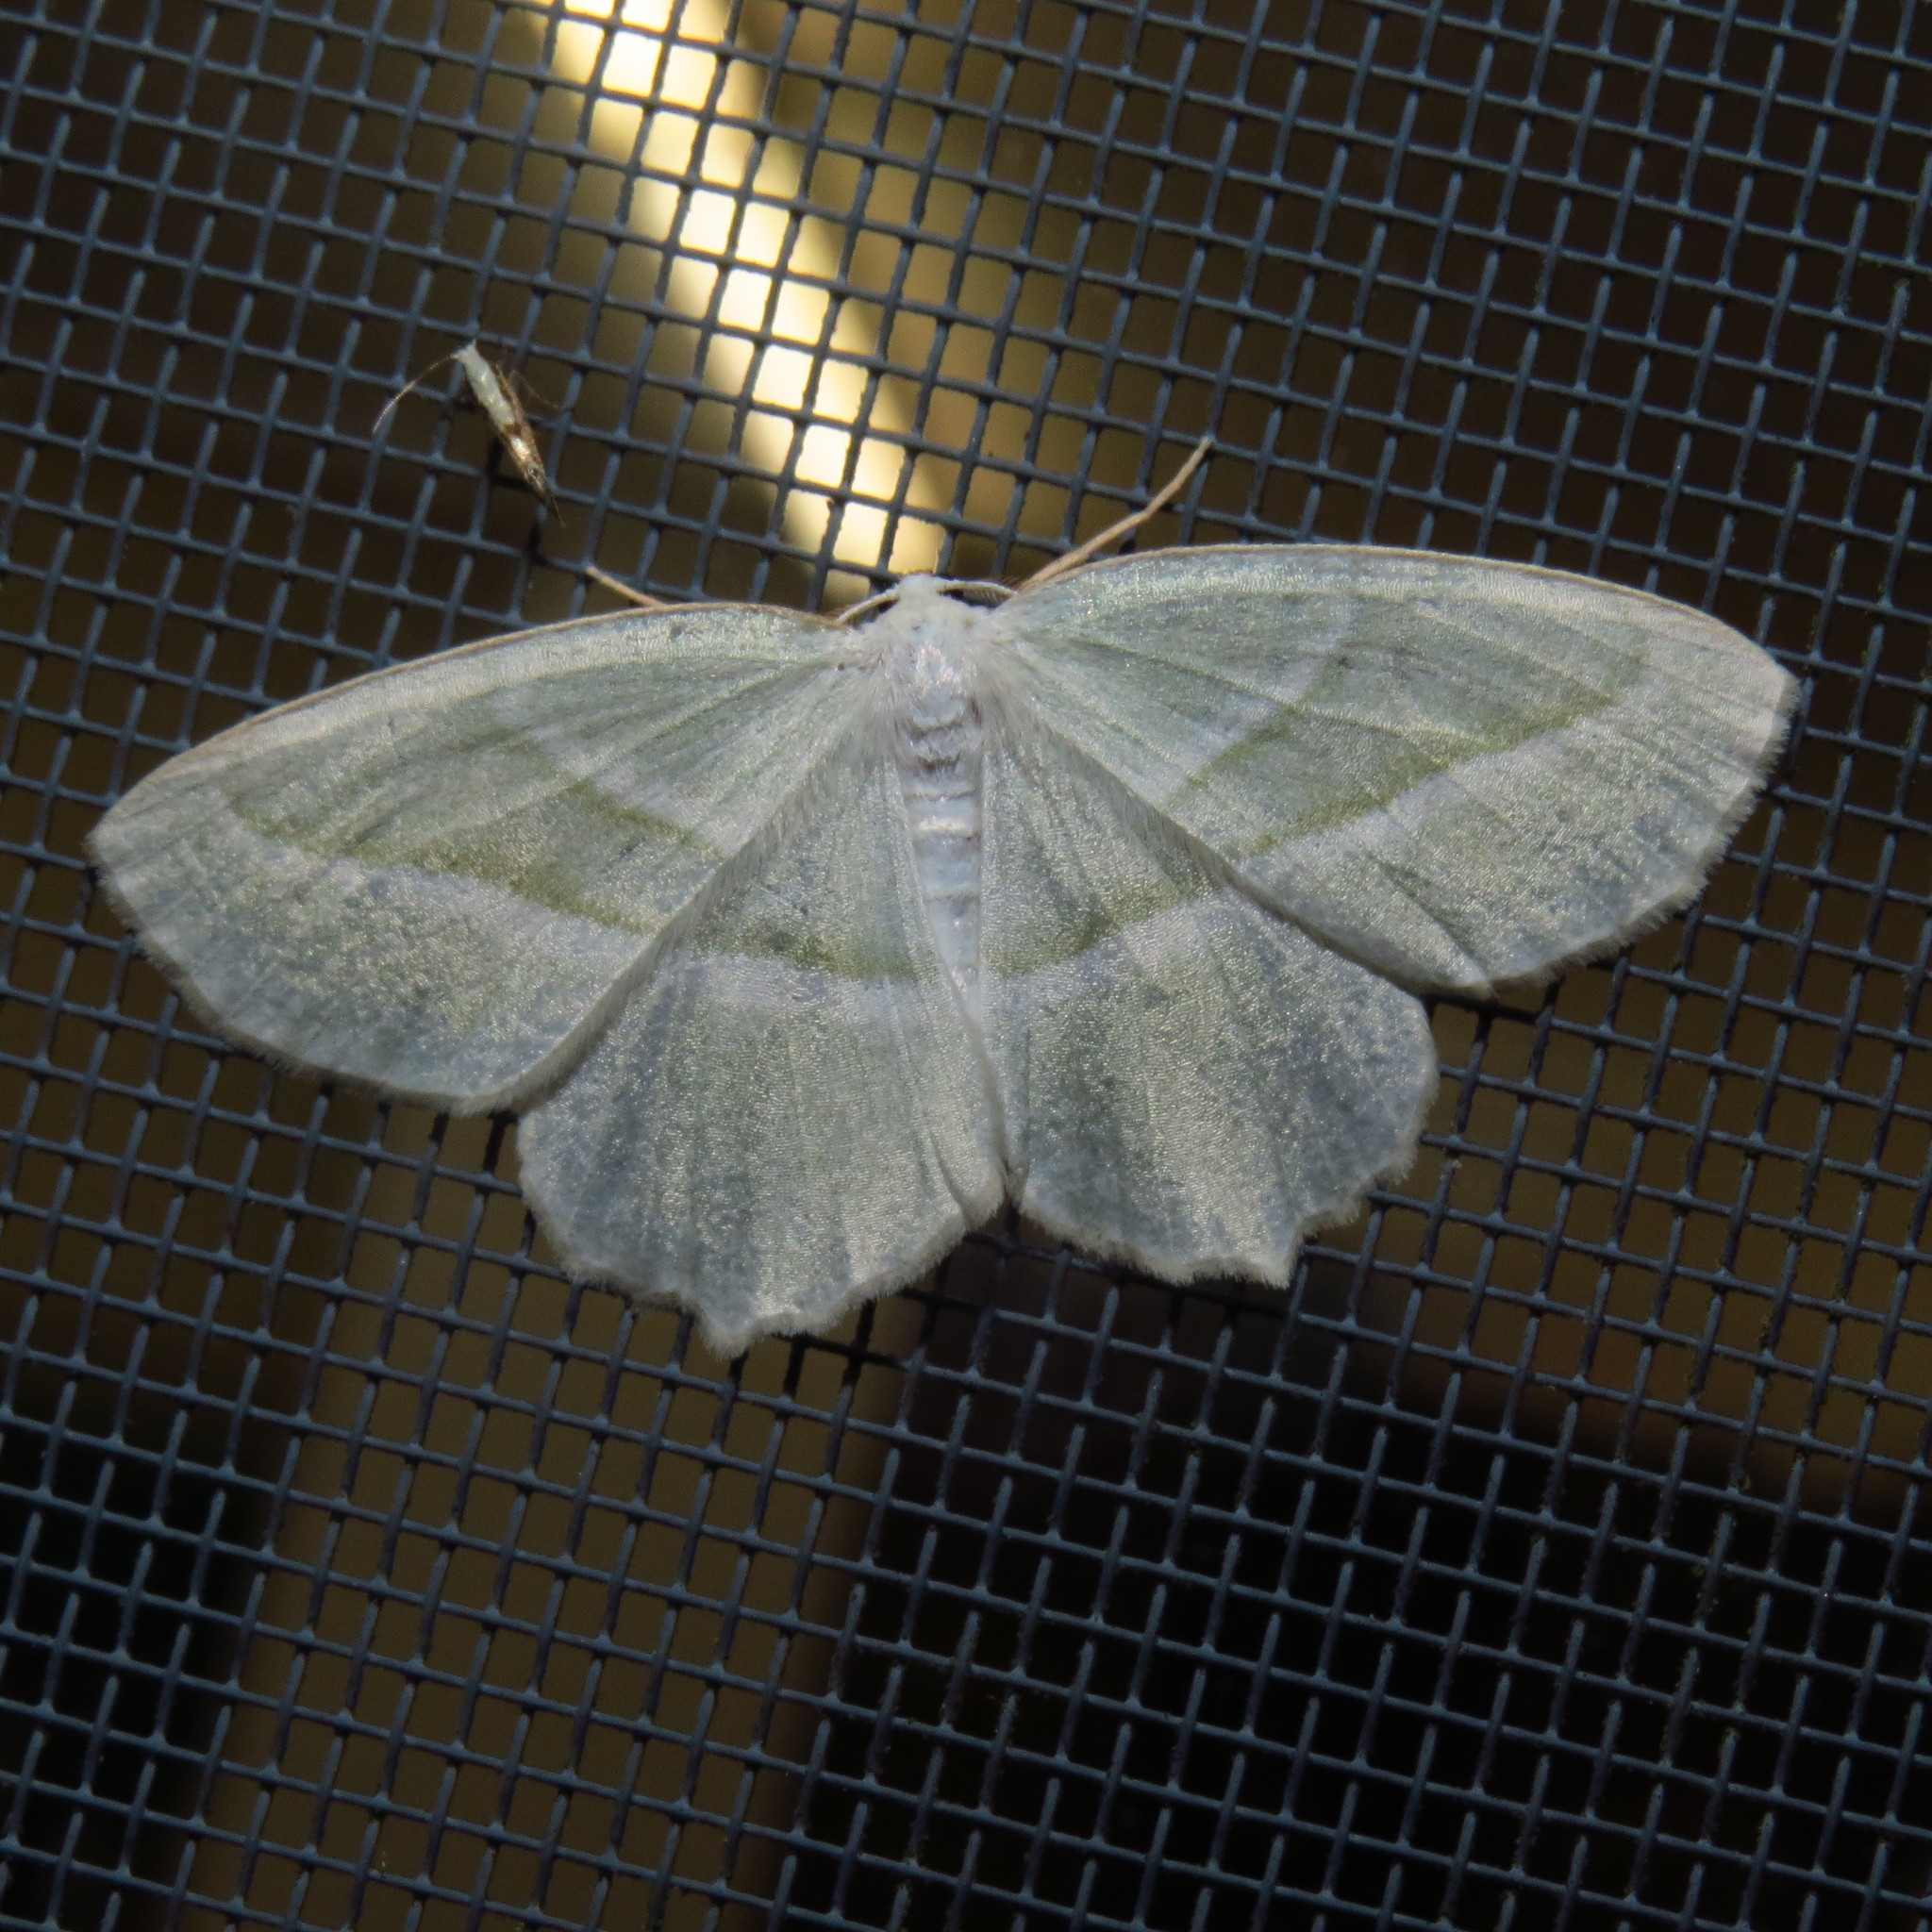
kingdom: Animalia
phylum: Arthropoda
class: Insecta
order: Lepidoptera
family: Geometridae
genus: Campaea
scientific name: Campaea perlata
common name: Fringed looper
